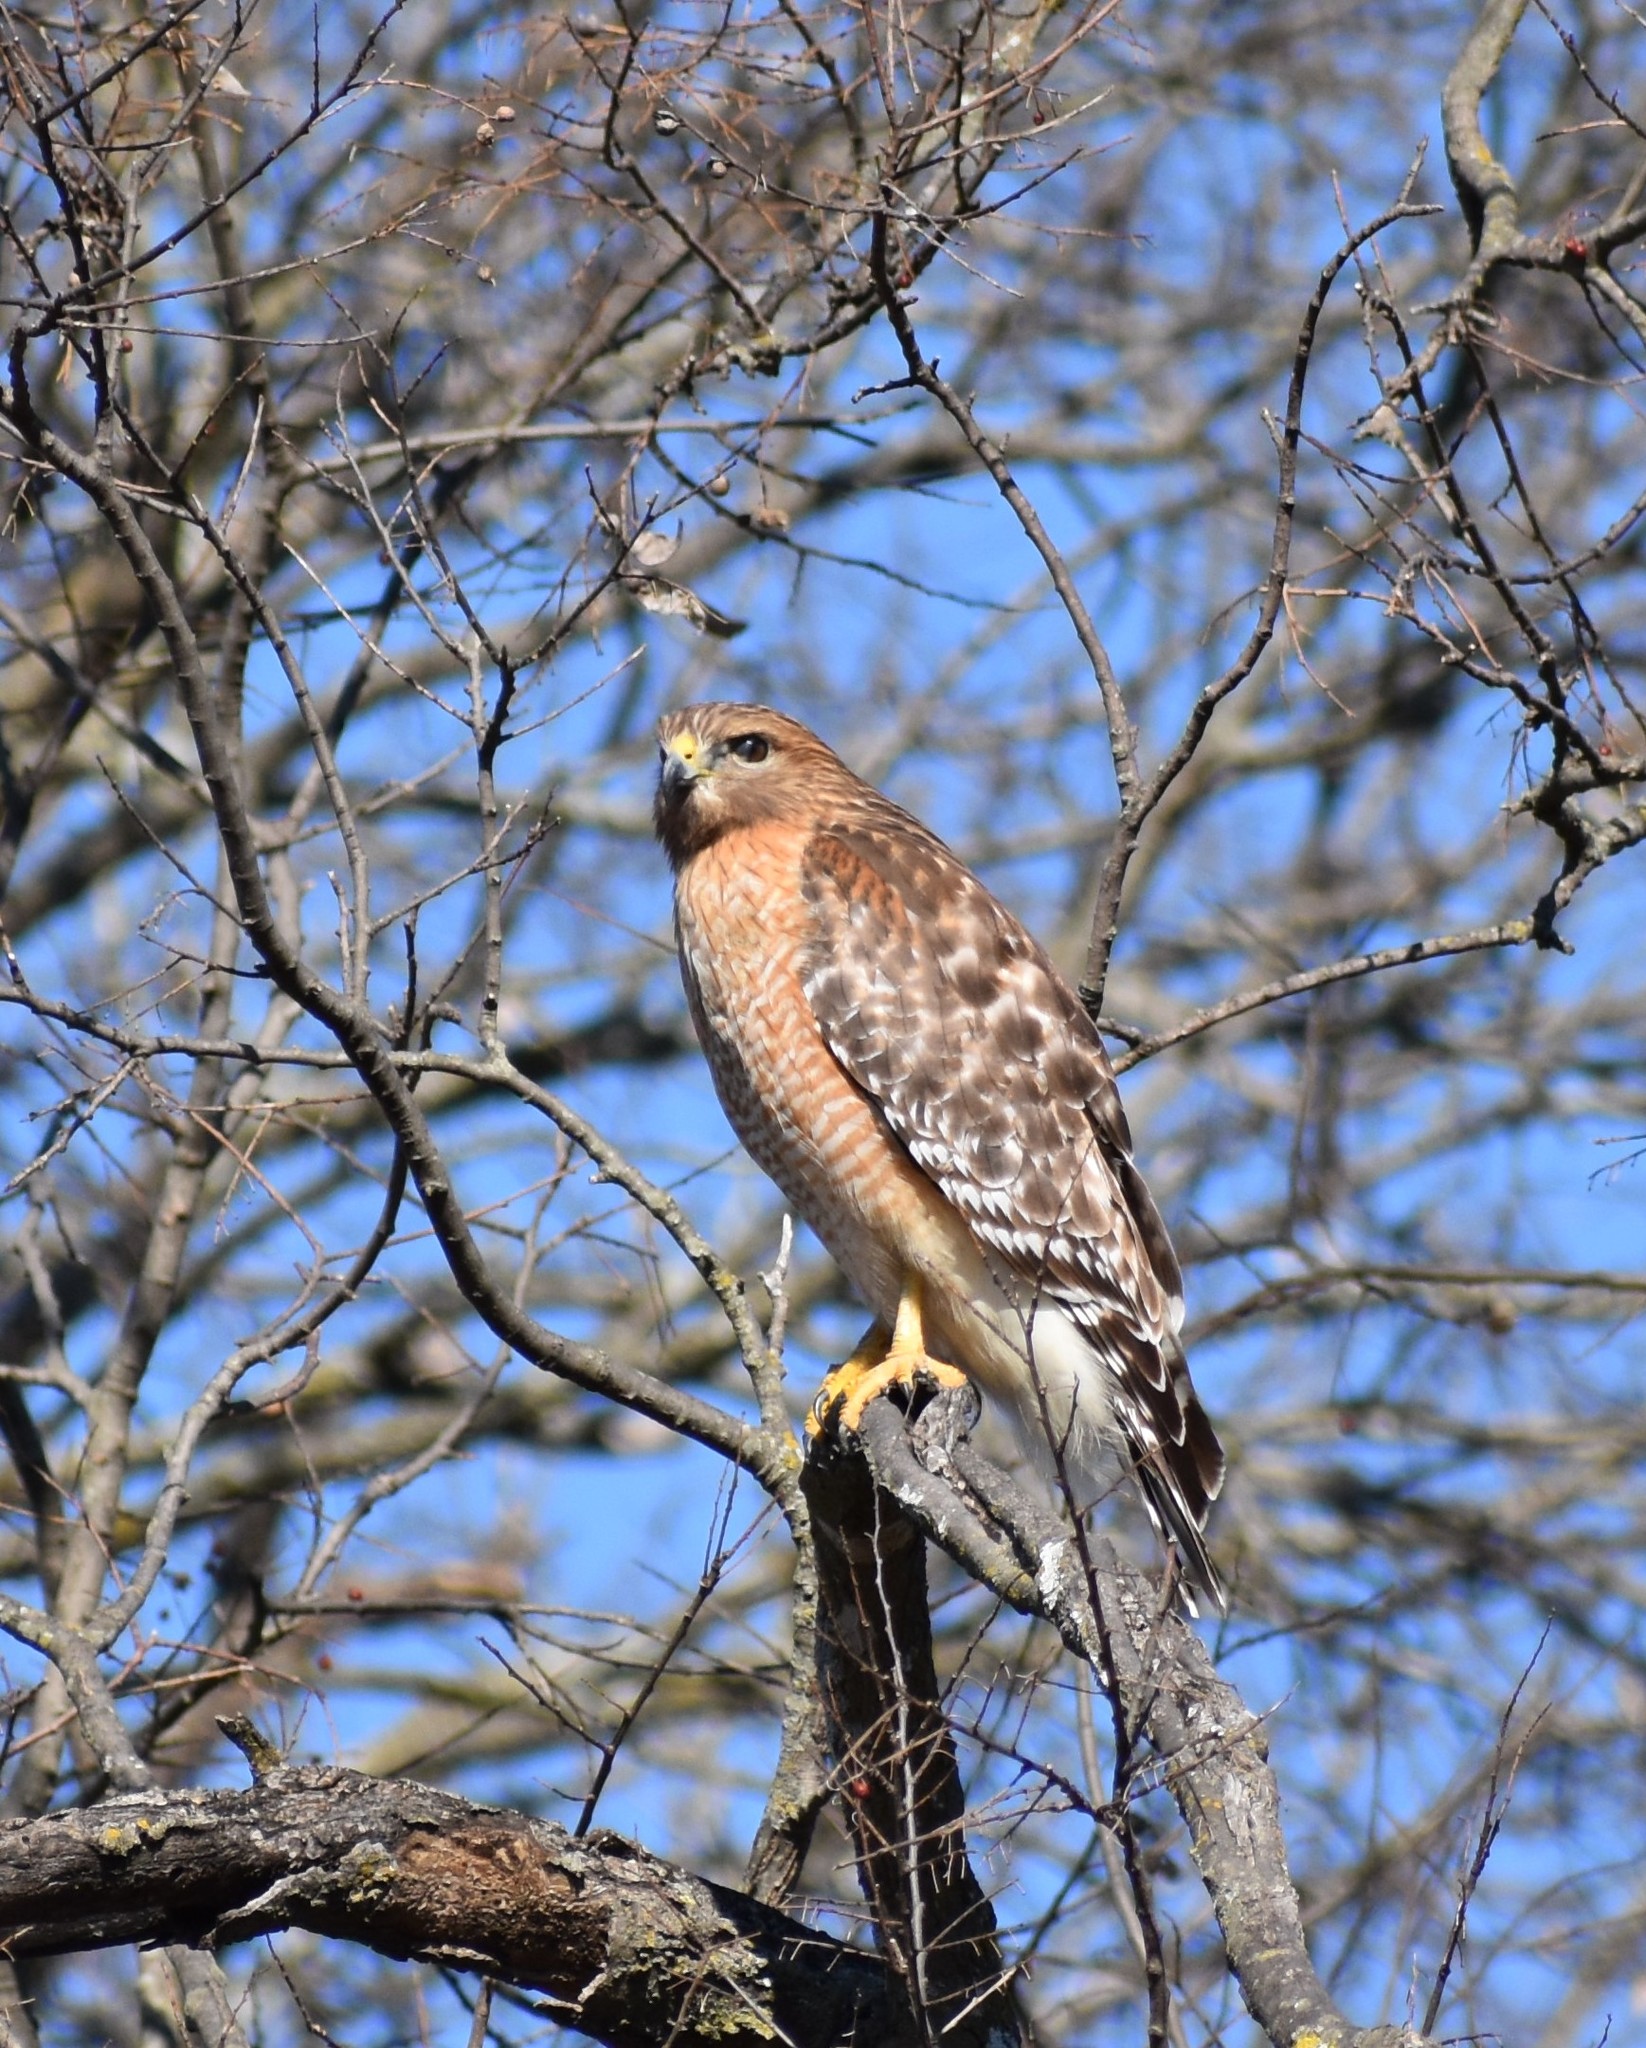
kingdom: Animalia
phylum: Chordata
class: Aves
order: Accipitriformes
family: Accipitridae
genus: Buteo
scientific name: Buteo lineatus
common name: Red-shouldered hawk
